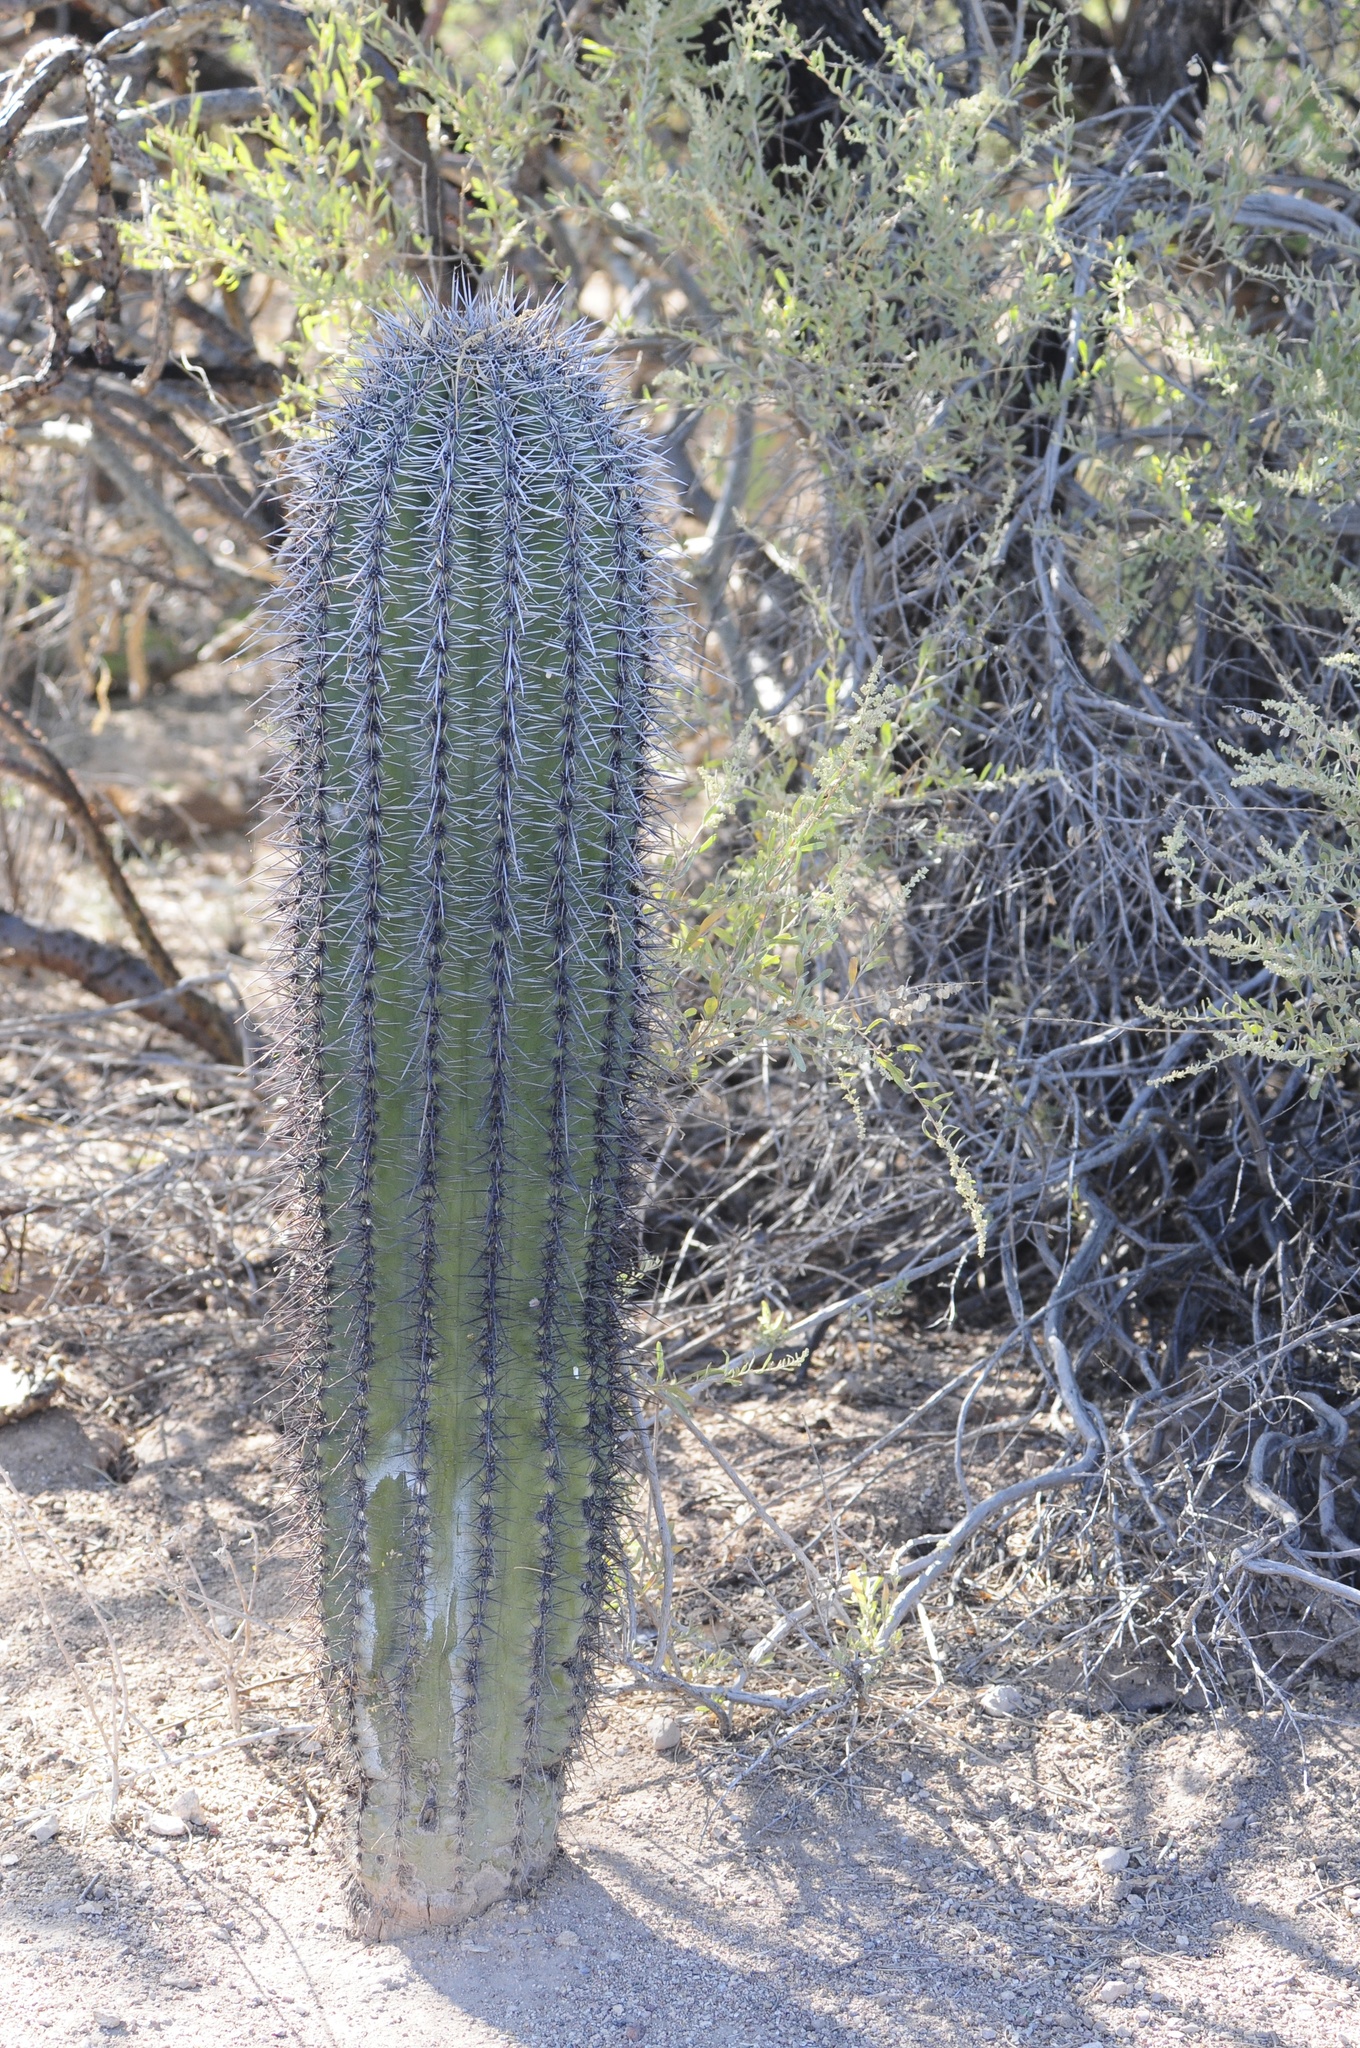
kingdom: Plantae
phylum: Tracheophyta
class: Magnoliopsida
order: Caryophyllales
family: Cactaceae
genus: Carnegiea
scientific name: Carnegiea gigantea
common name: Saguaro
